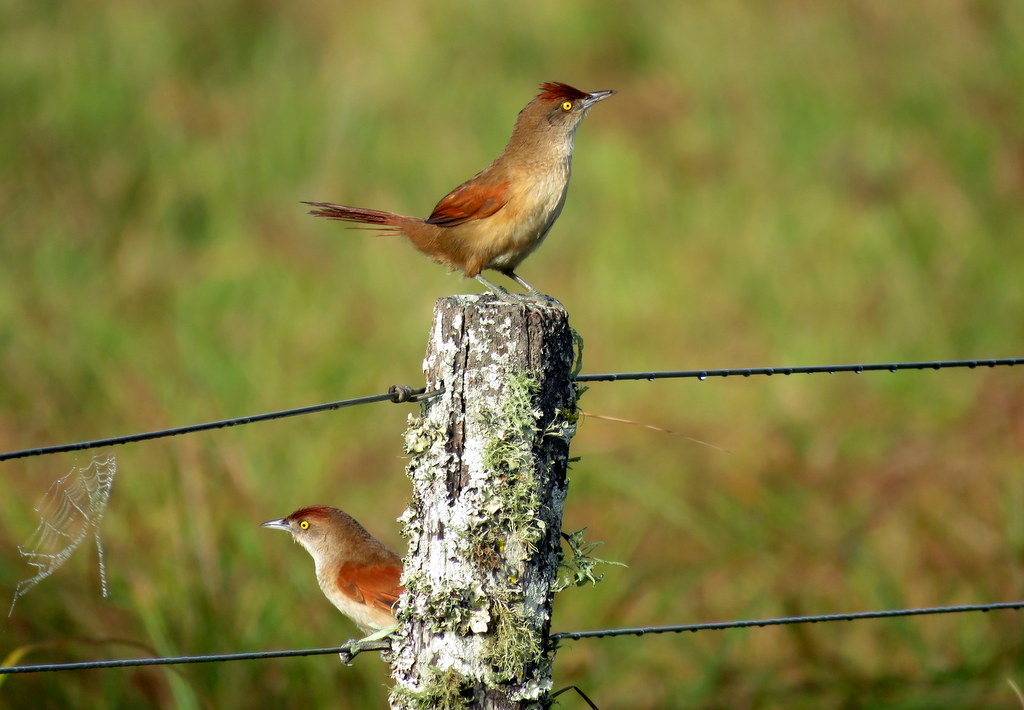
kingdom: Animalia
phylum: Chordata
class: Aves
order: Passeriformes
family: Furnariidae
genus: Phacellodomus
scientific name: Phacellodomus ruber
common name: Greater thornbird
